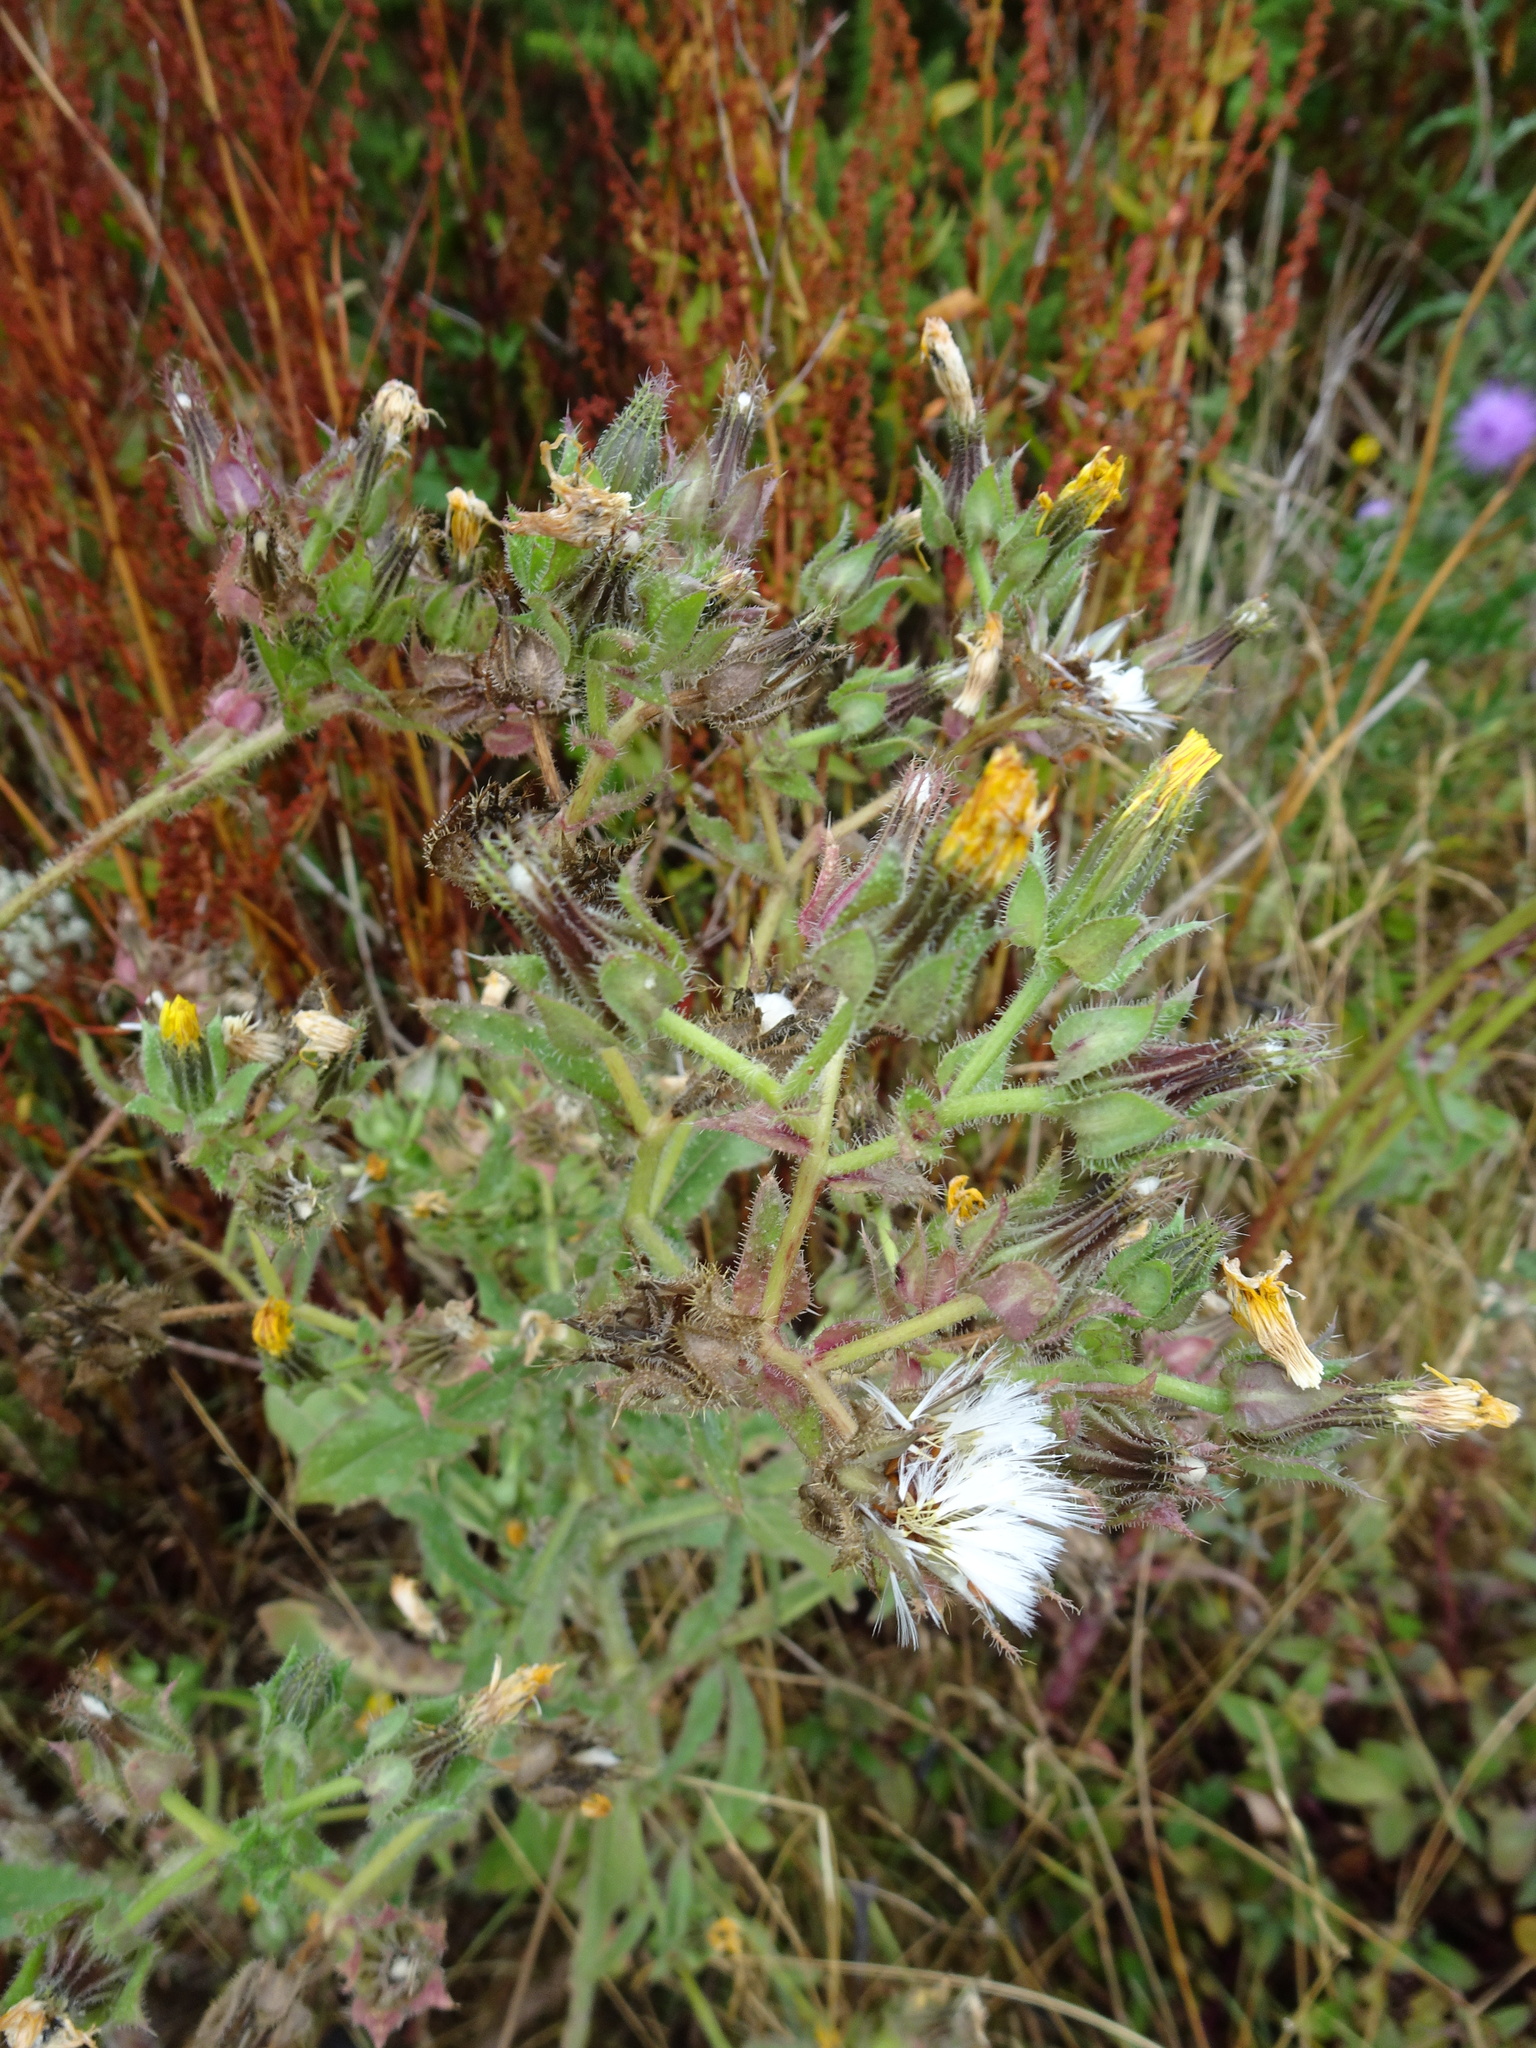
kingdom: Plantae
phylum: Tracheophyta
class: Magnoliopsida
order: Asterales
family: Asteraceae
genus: Helminthotheca
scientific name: Helminthotheca echioides
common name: Ox-tongue
